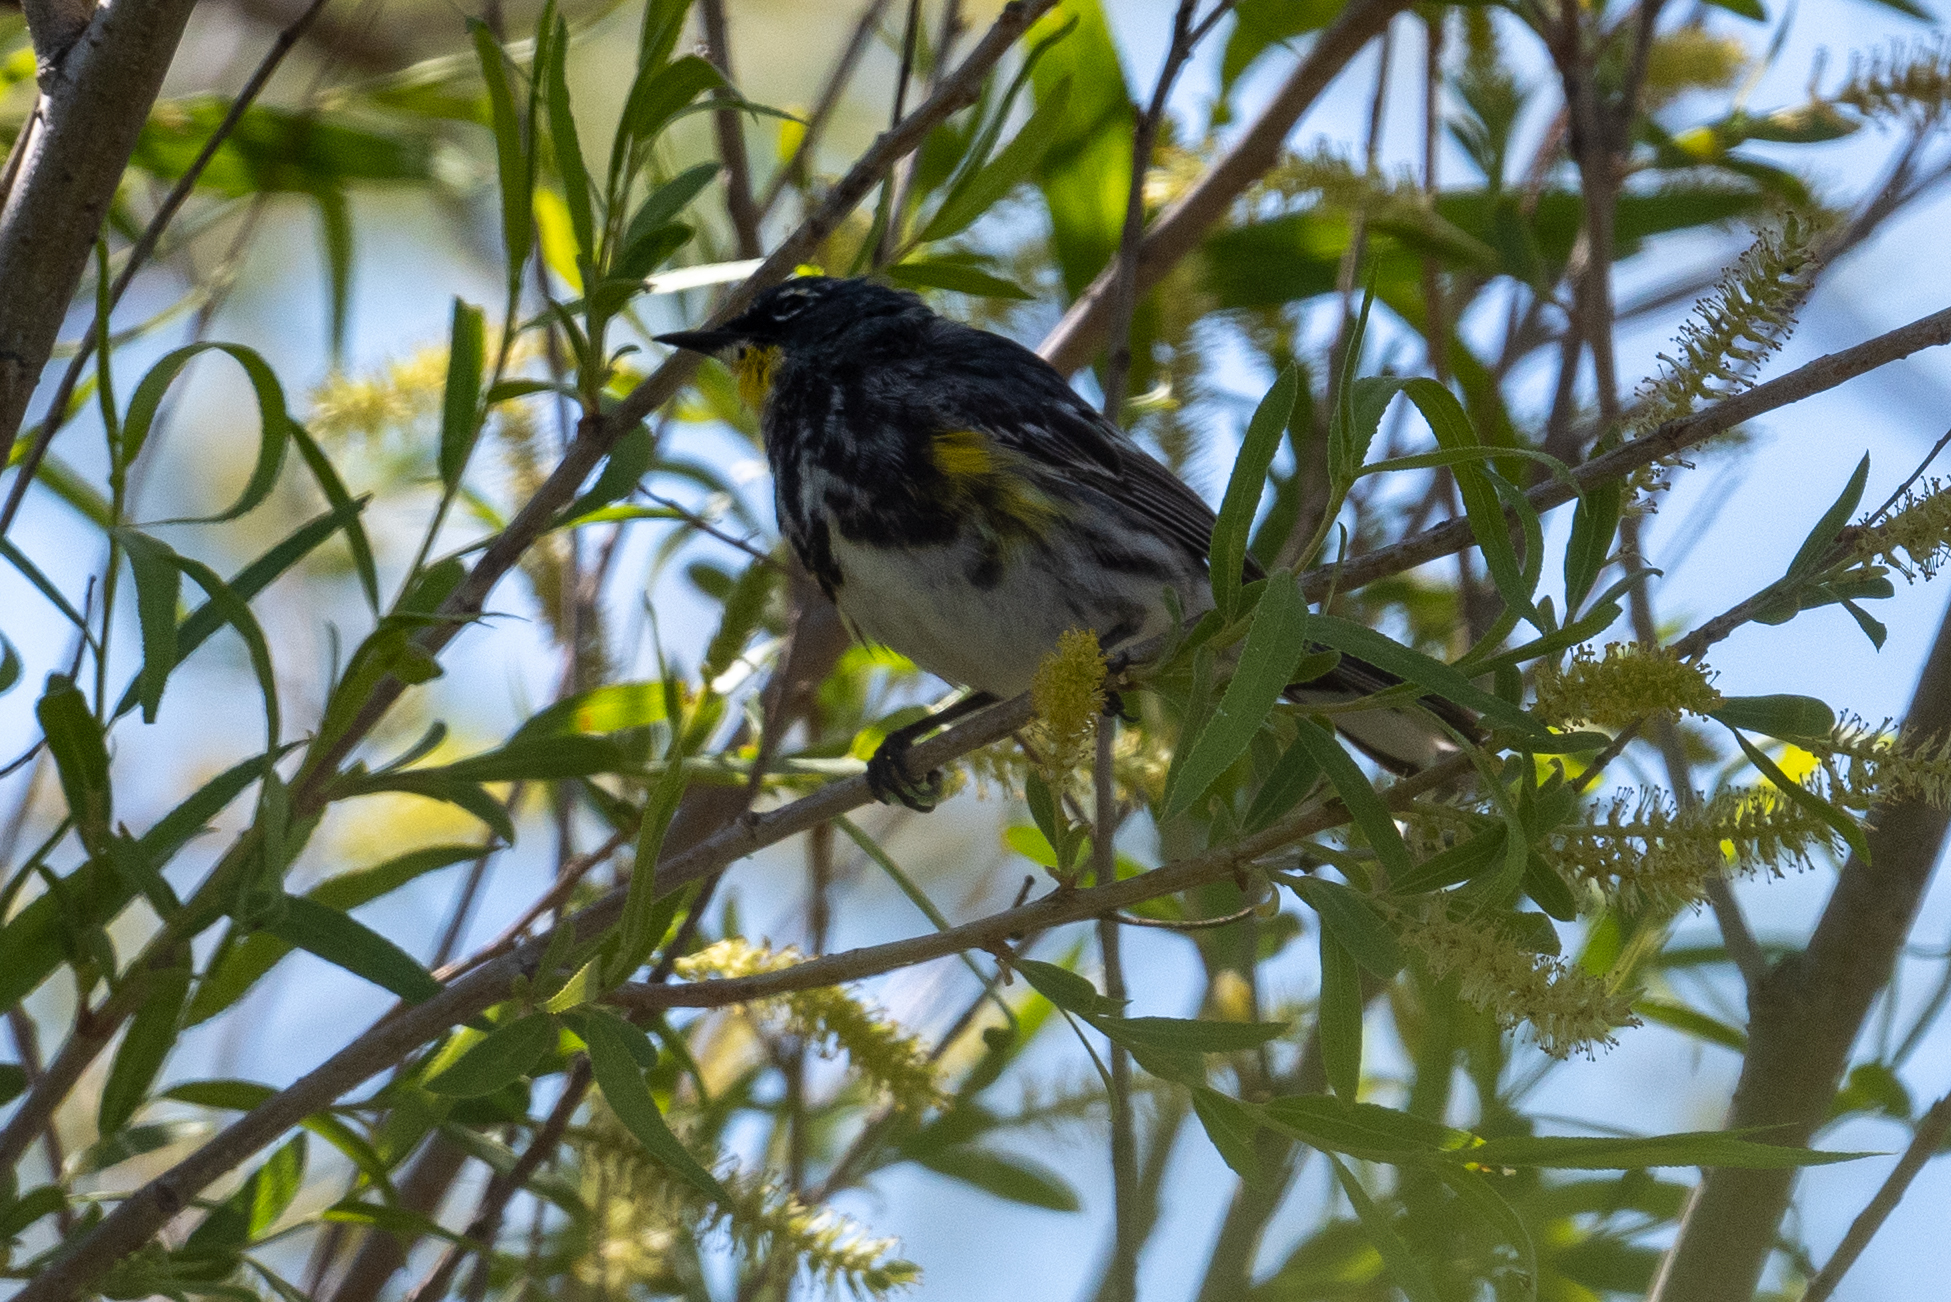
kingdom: Animalia
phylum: Chordata
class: Aves
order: Passeriformes
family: Parulidae
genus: Setophaga
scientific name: Setophaga coronata
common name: Myrtle warbler
